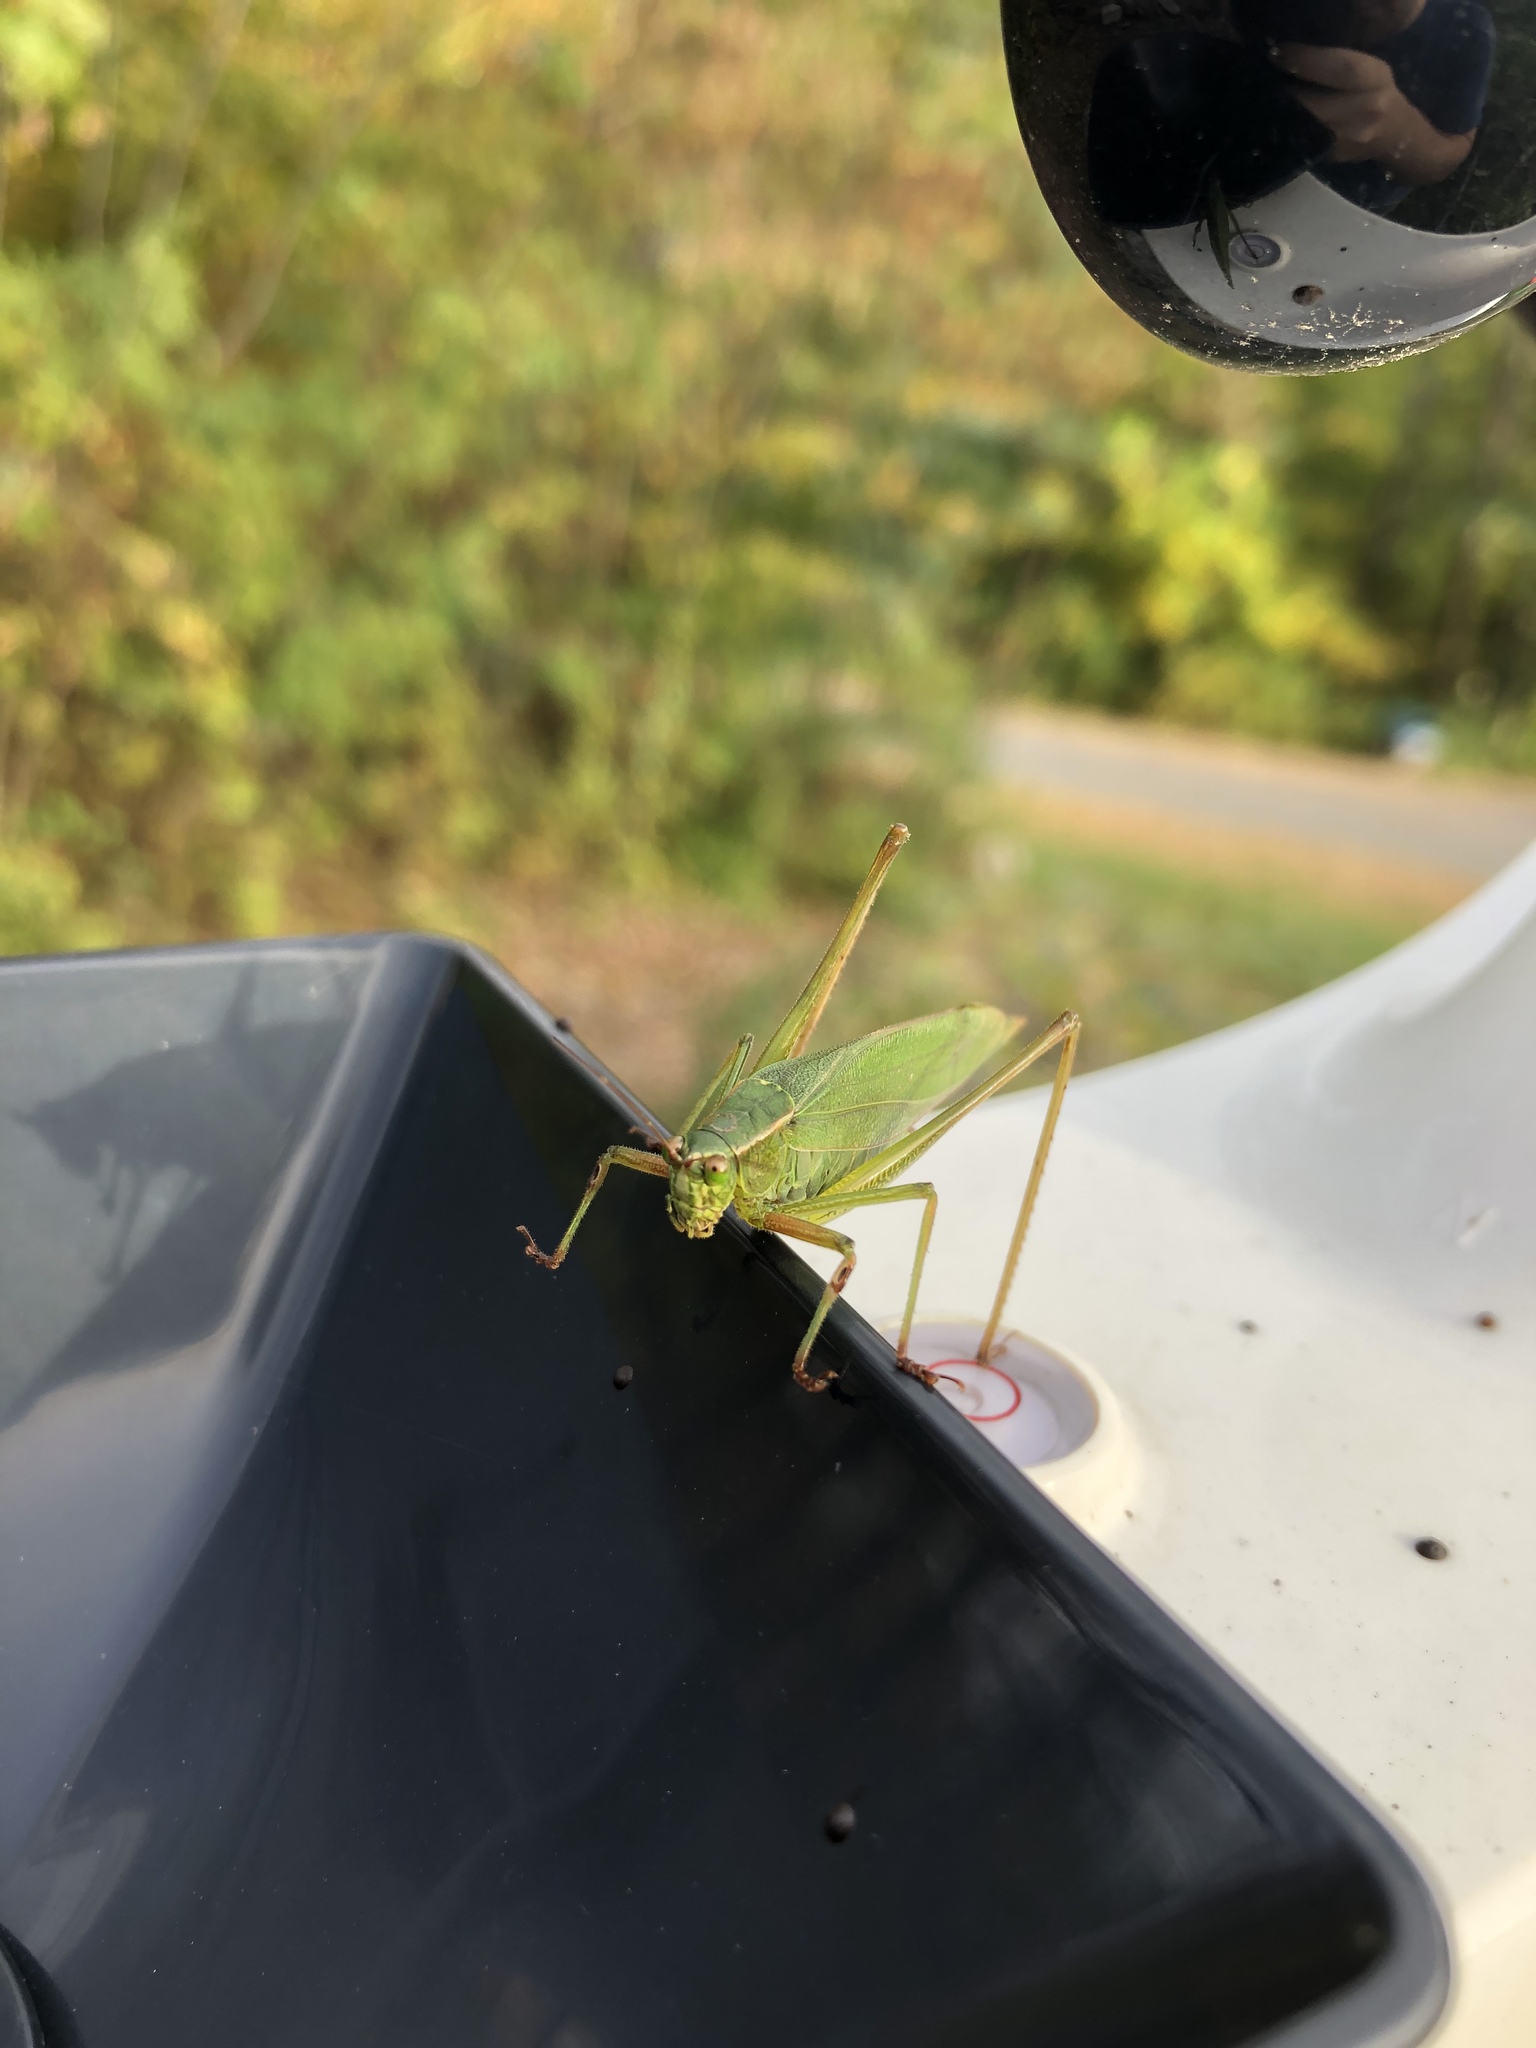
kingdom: Animalia
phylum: Arthropoda
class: Insecta
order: Orthoptera
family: Tettigoniidae
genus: Scudderia
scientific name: Scudderia furcata
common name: Fork-tailed bush katydid
